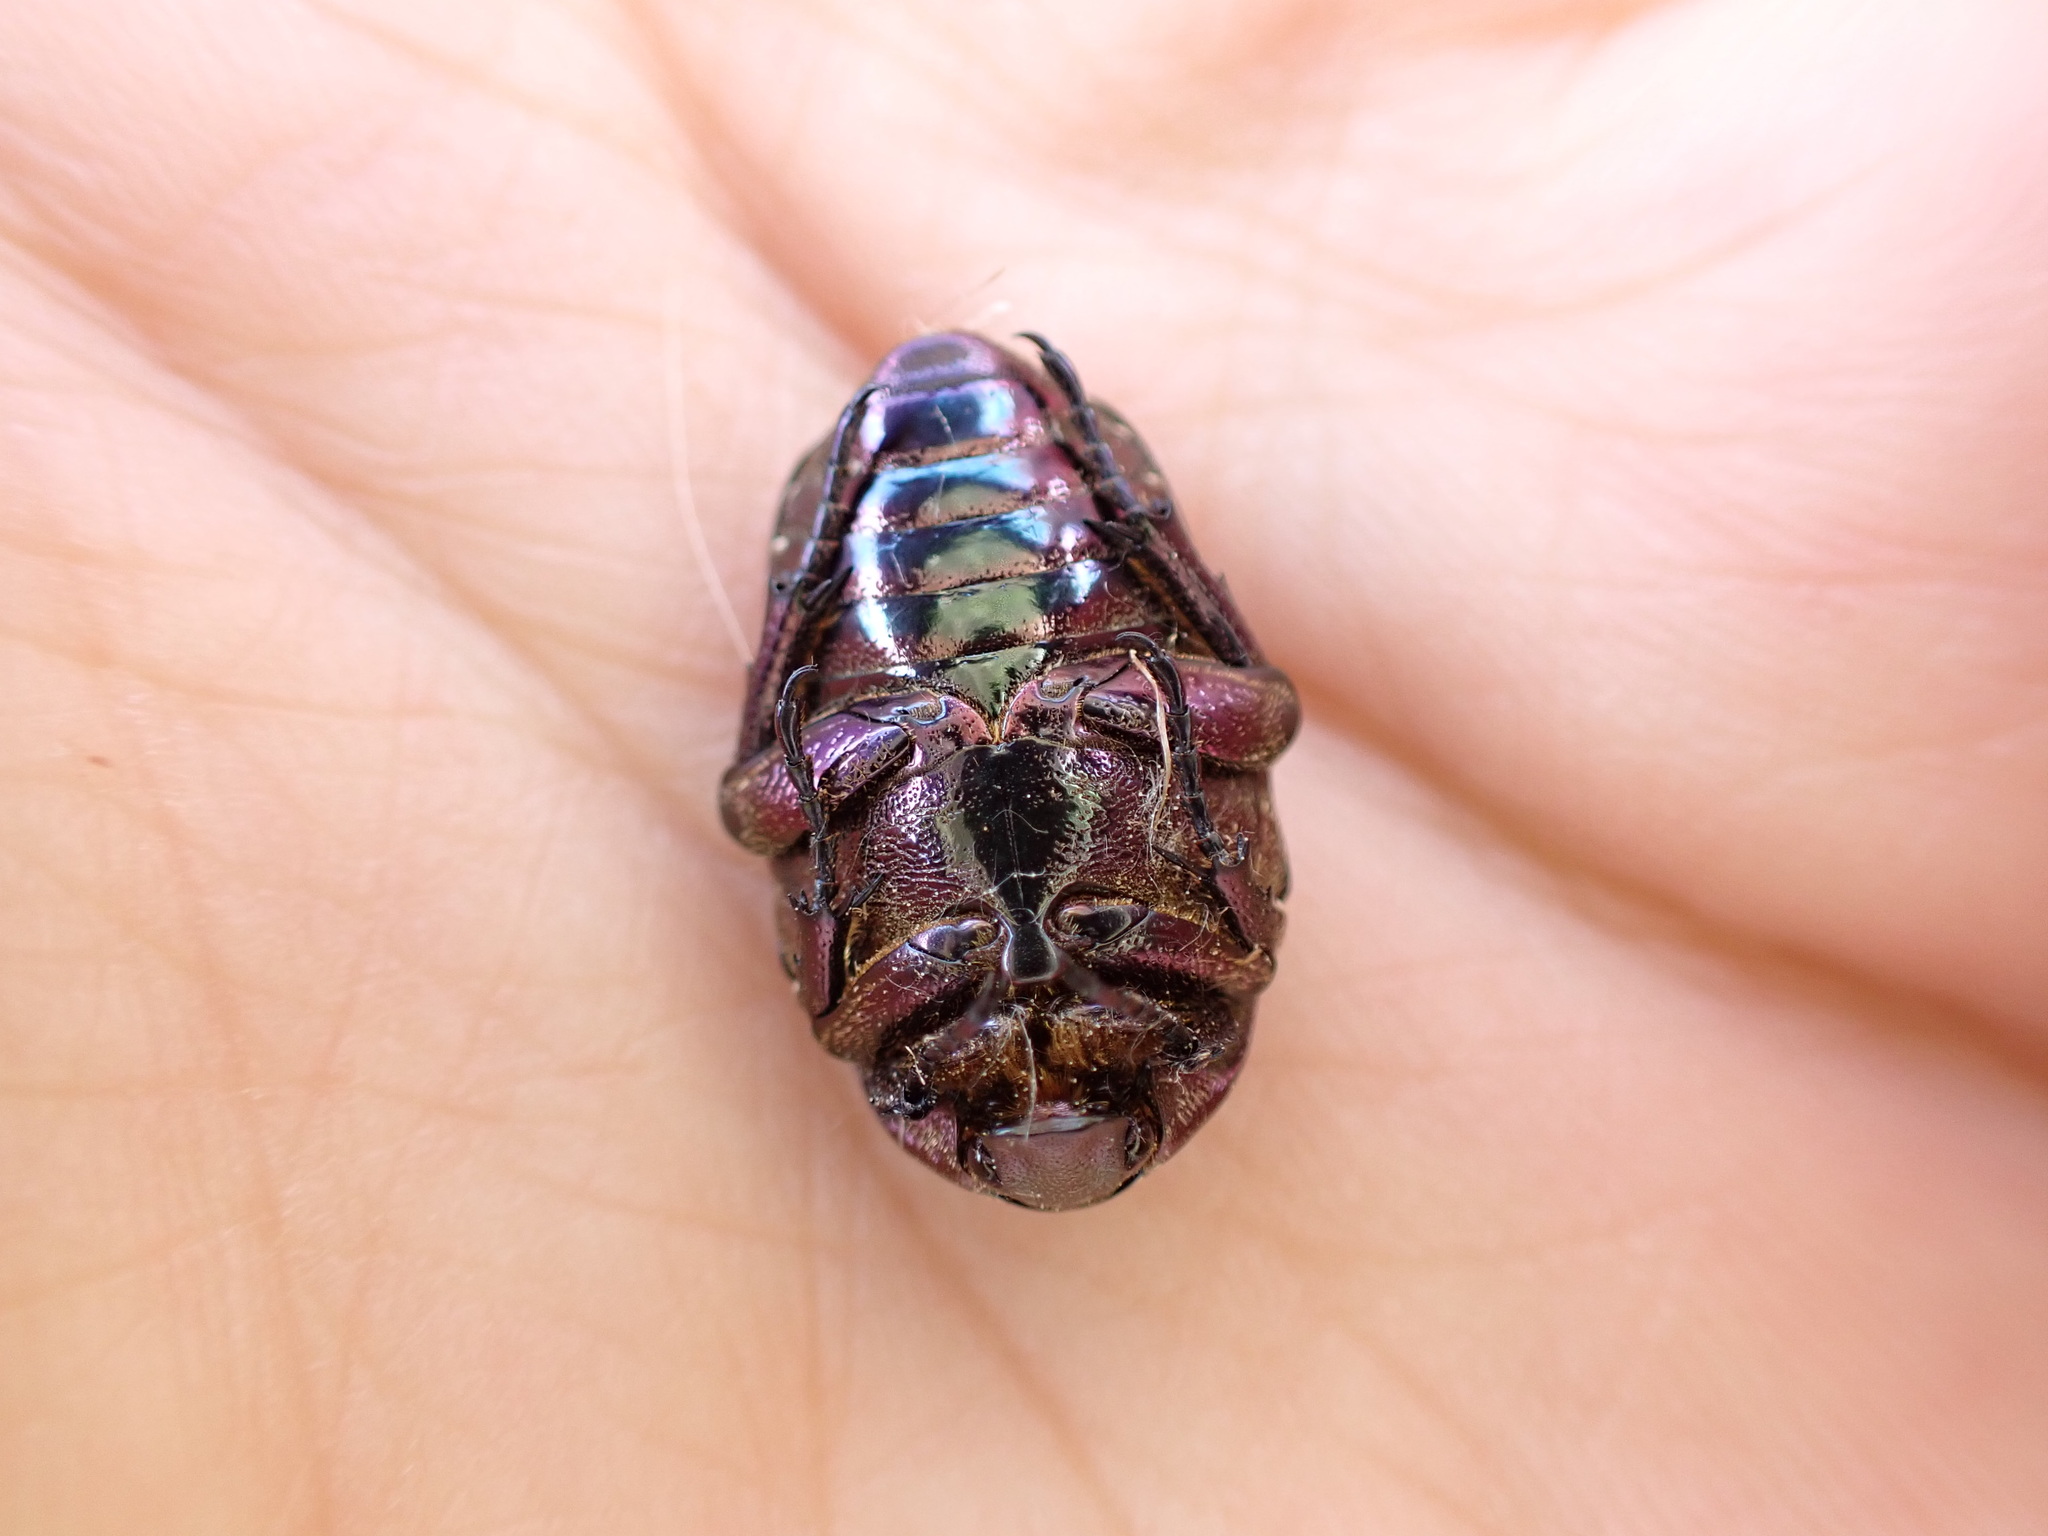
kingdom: Animalia
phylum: Arthropoda
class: Insecta
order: Coleoptera
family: Scarabaeidae
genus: Protaetia
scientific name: Protaetia cuprea
